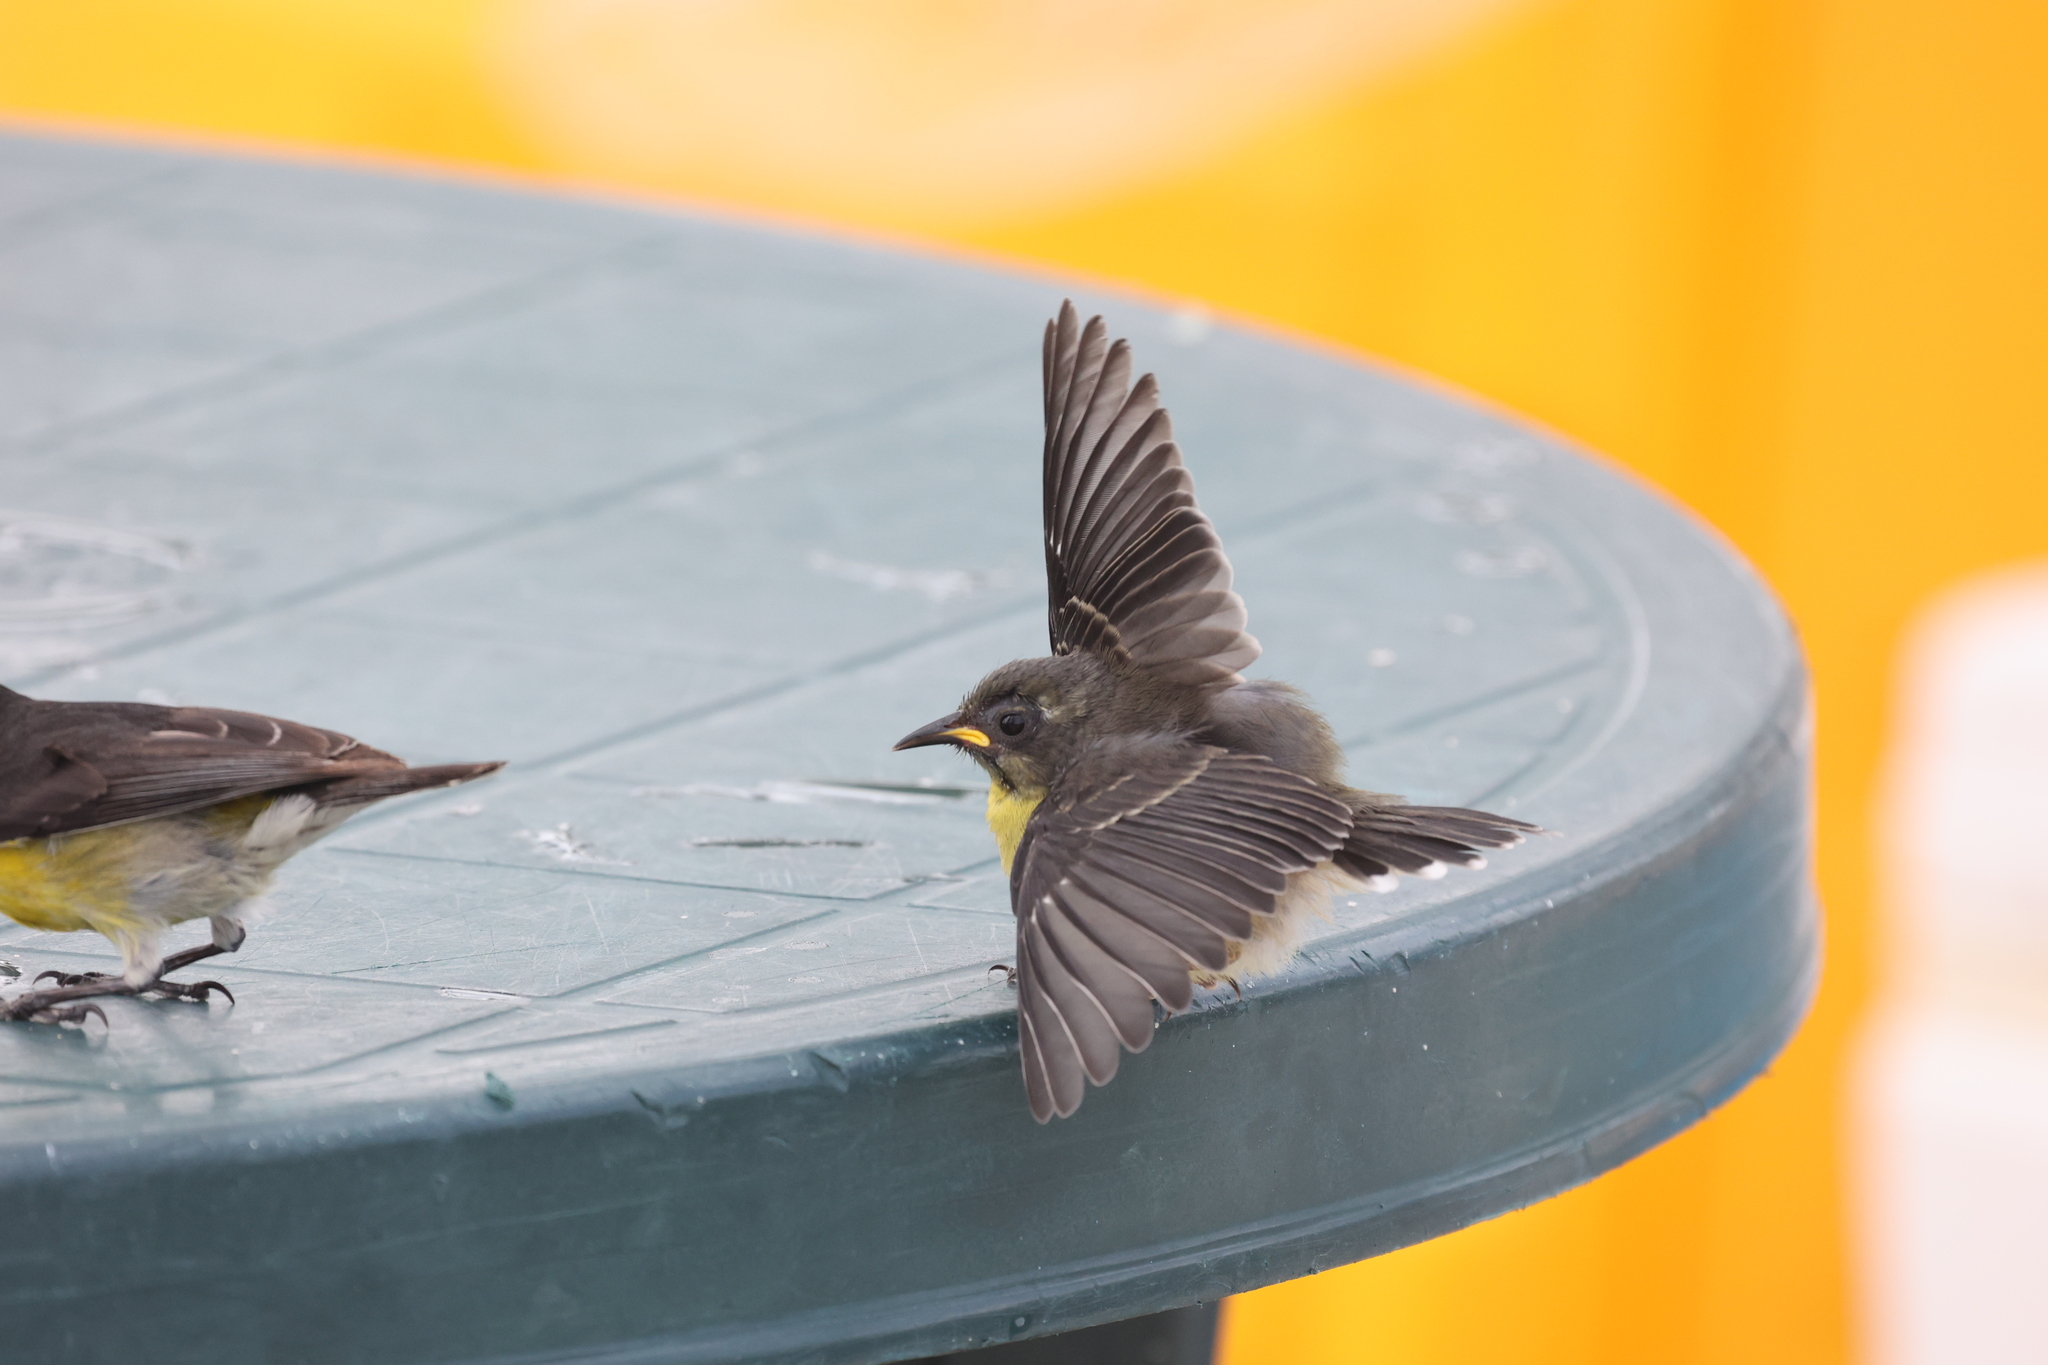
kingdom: Animalia
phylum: Chordata
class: Aves
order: Passeriformes
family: Thraupidae
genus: Coereba
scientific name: Coereba flaveola
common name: Bananaquit
